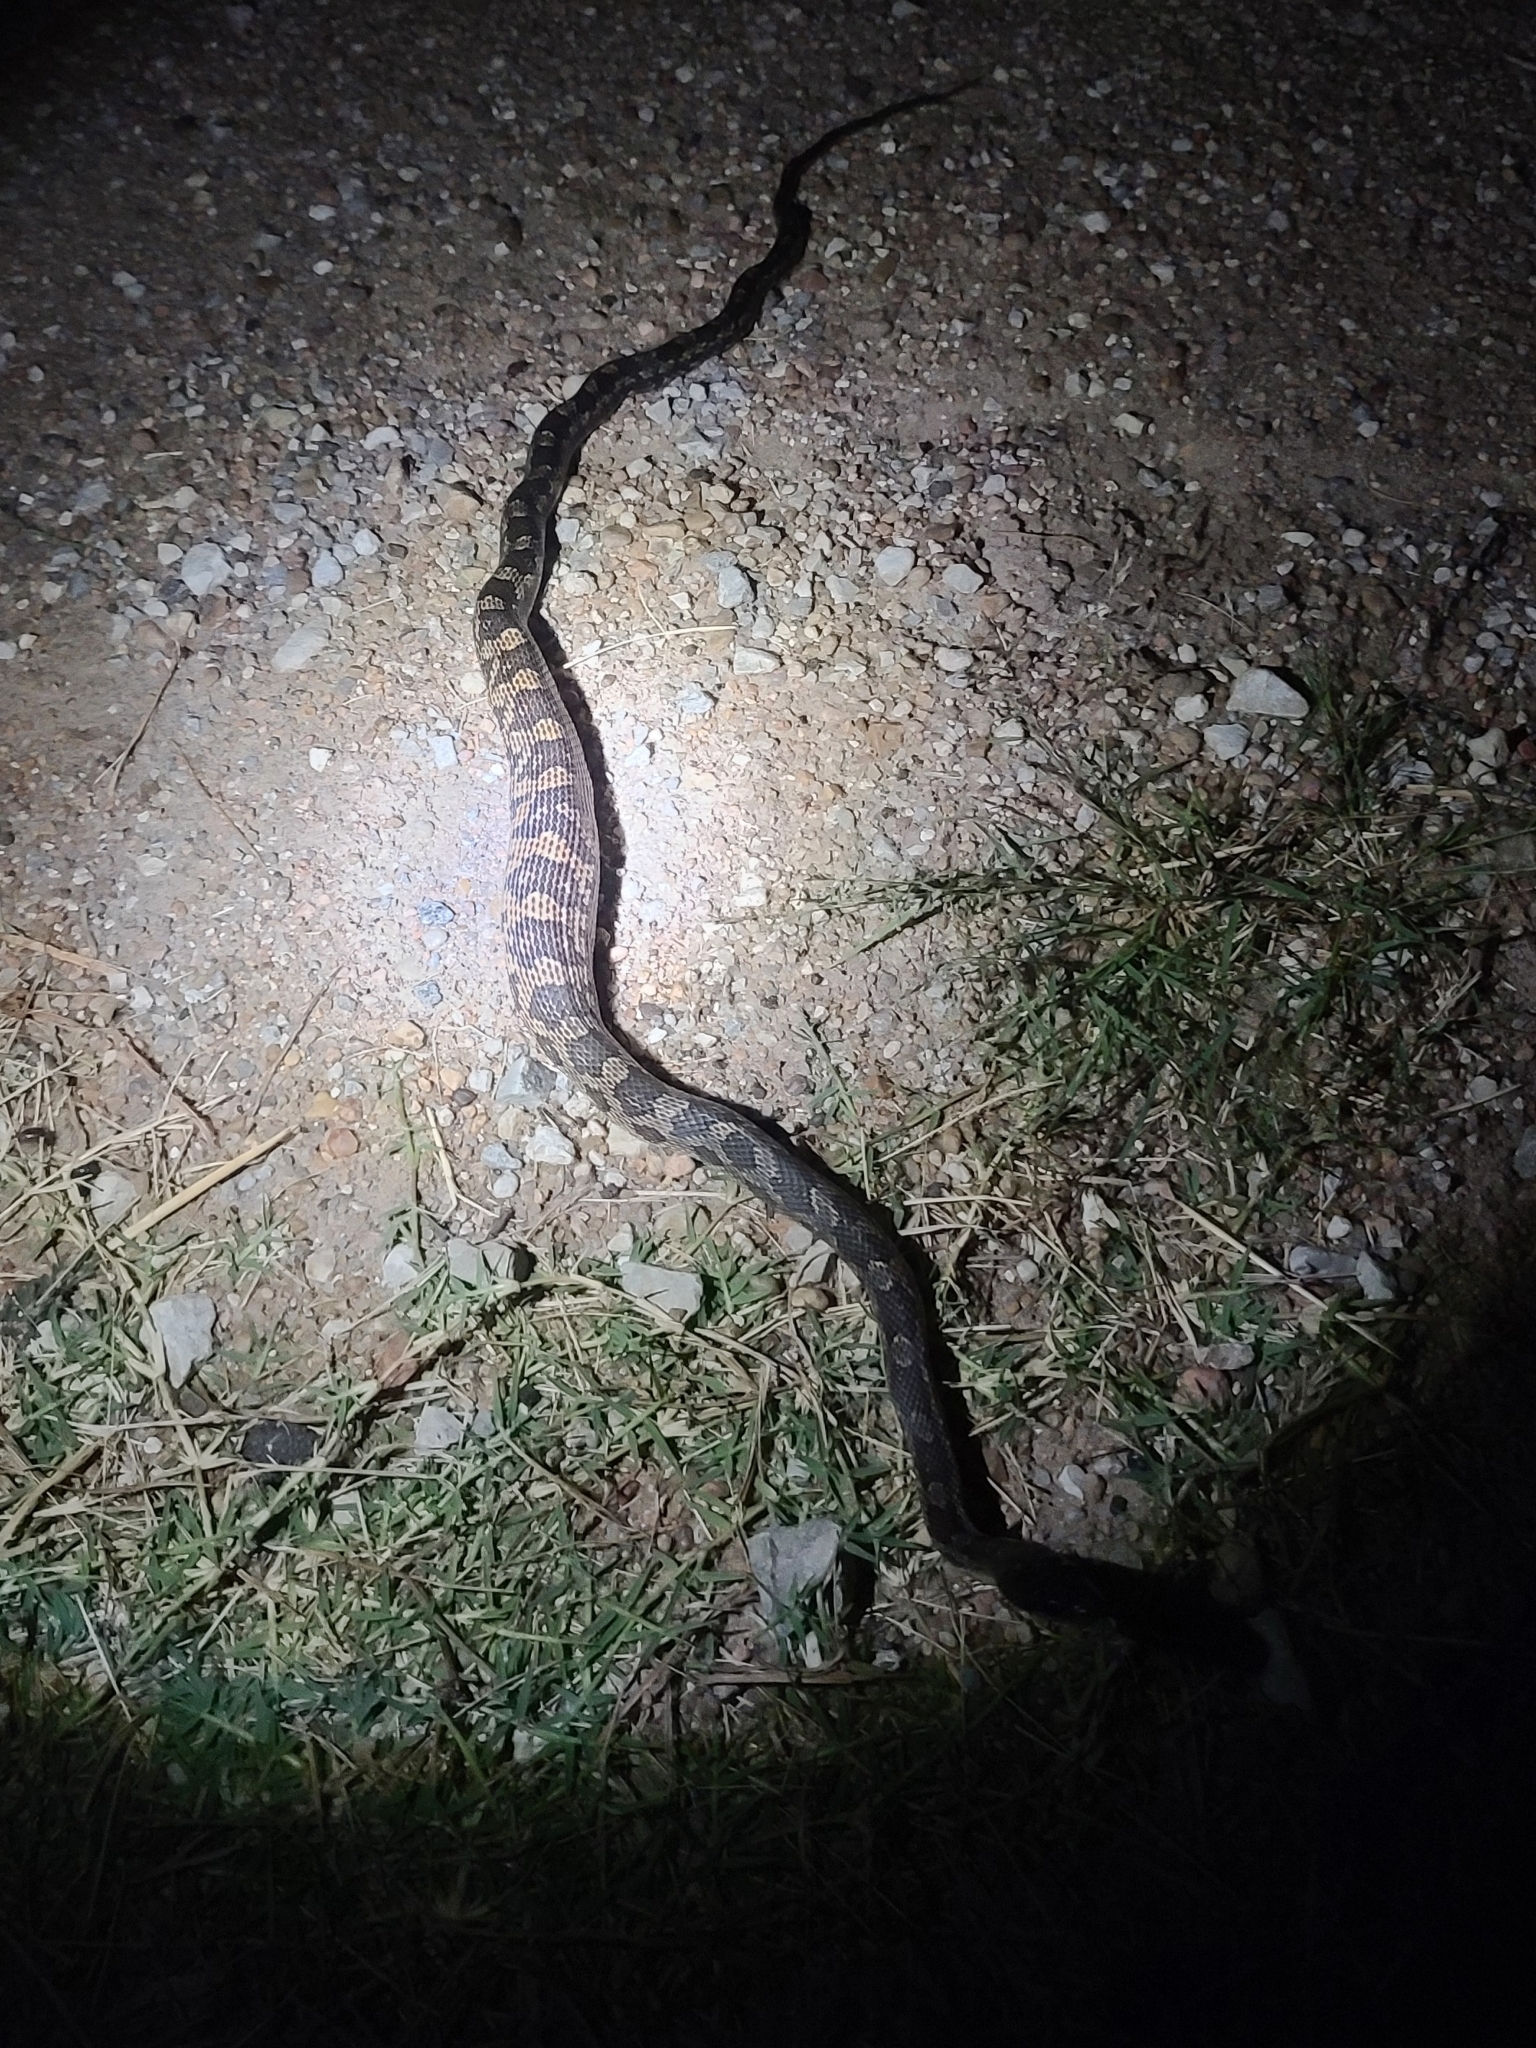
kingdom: Animalia
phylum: Chordata
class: Squamata
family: Colubridae
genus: Pantherophis
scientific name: Pantherophis obsoletus
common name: Black rat snake
